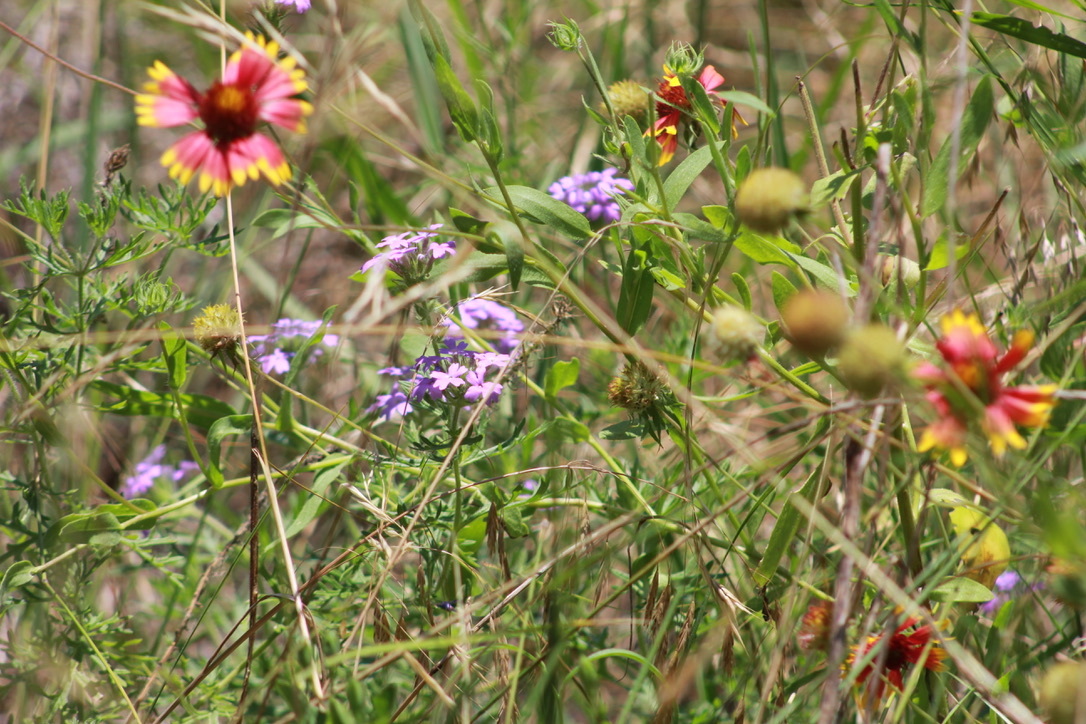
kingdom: Plantae
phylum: Tracheophyta
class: Magnoliopsida
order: Lamiales
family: Verbenaceae
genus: Verbena
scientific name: Verbena bipinnatifida
